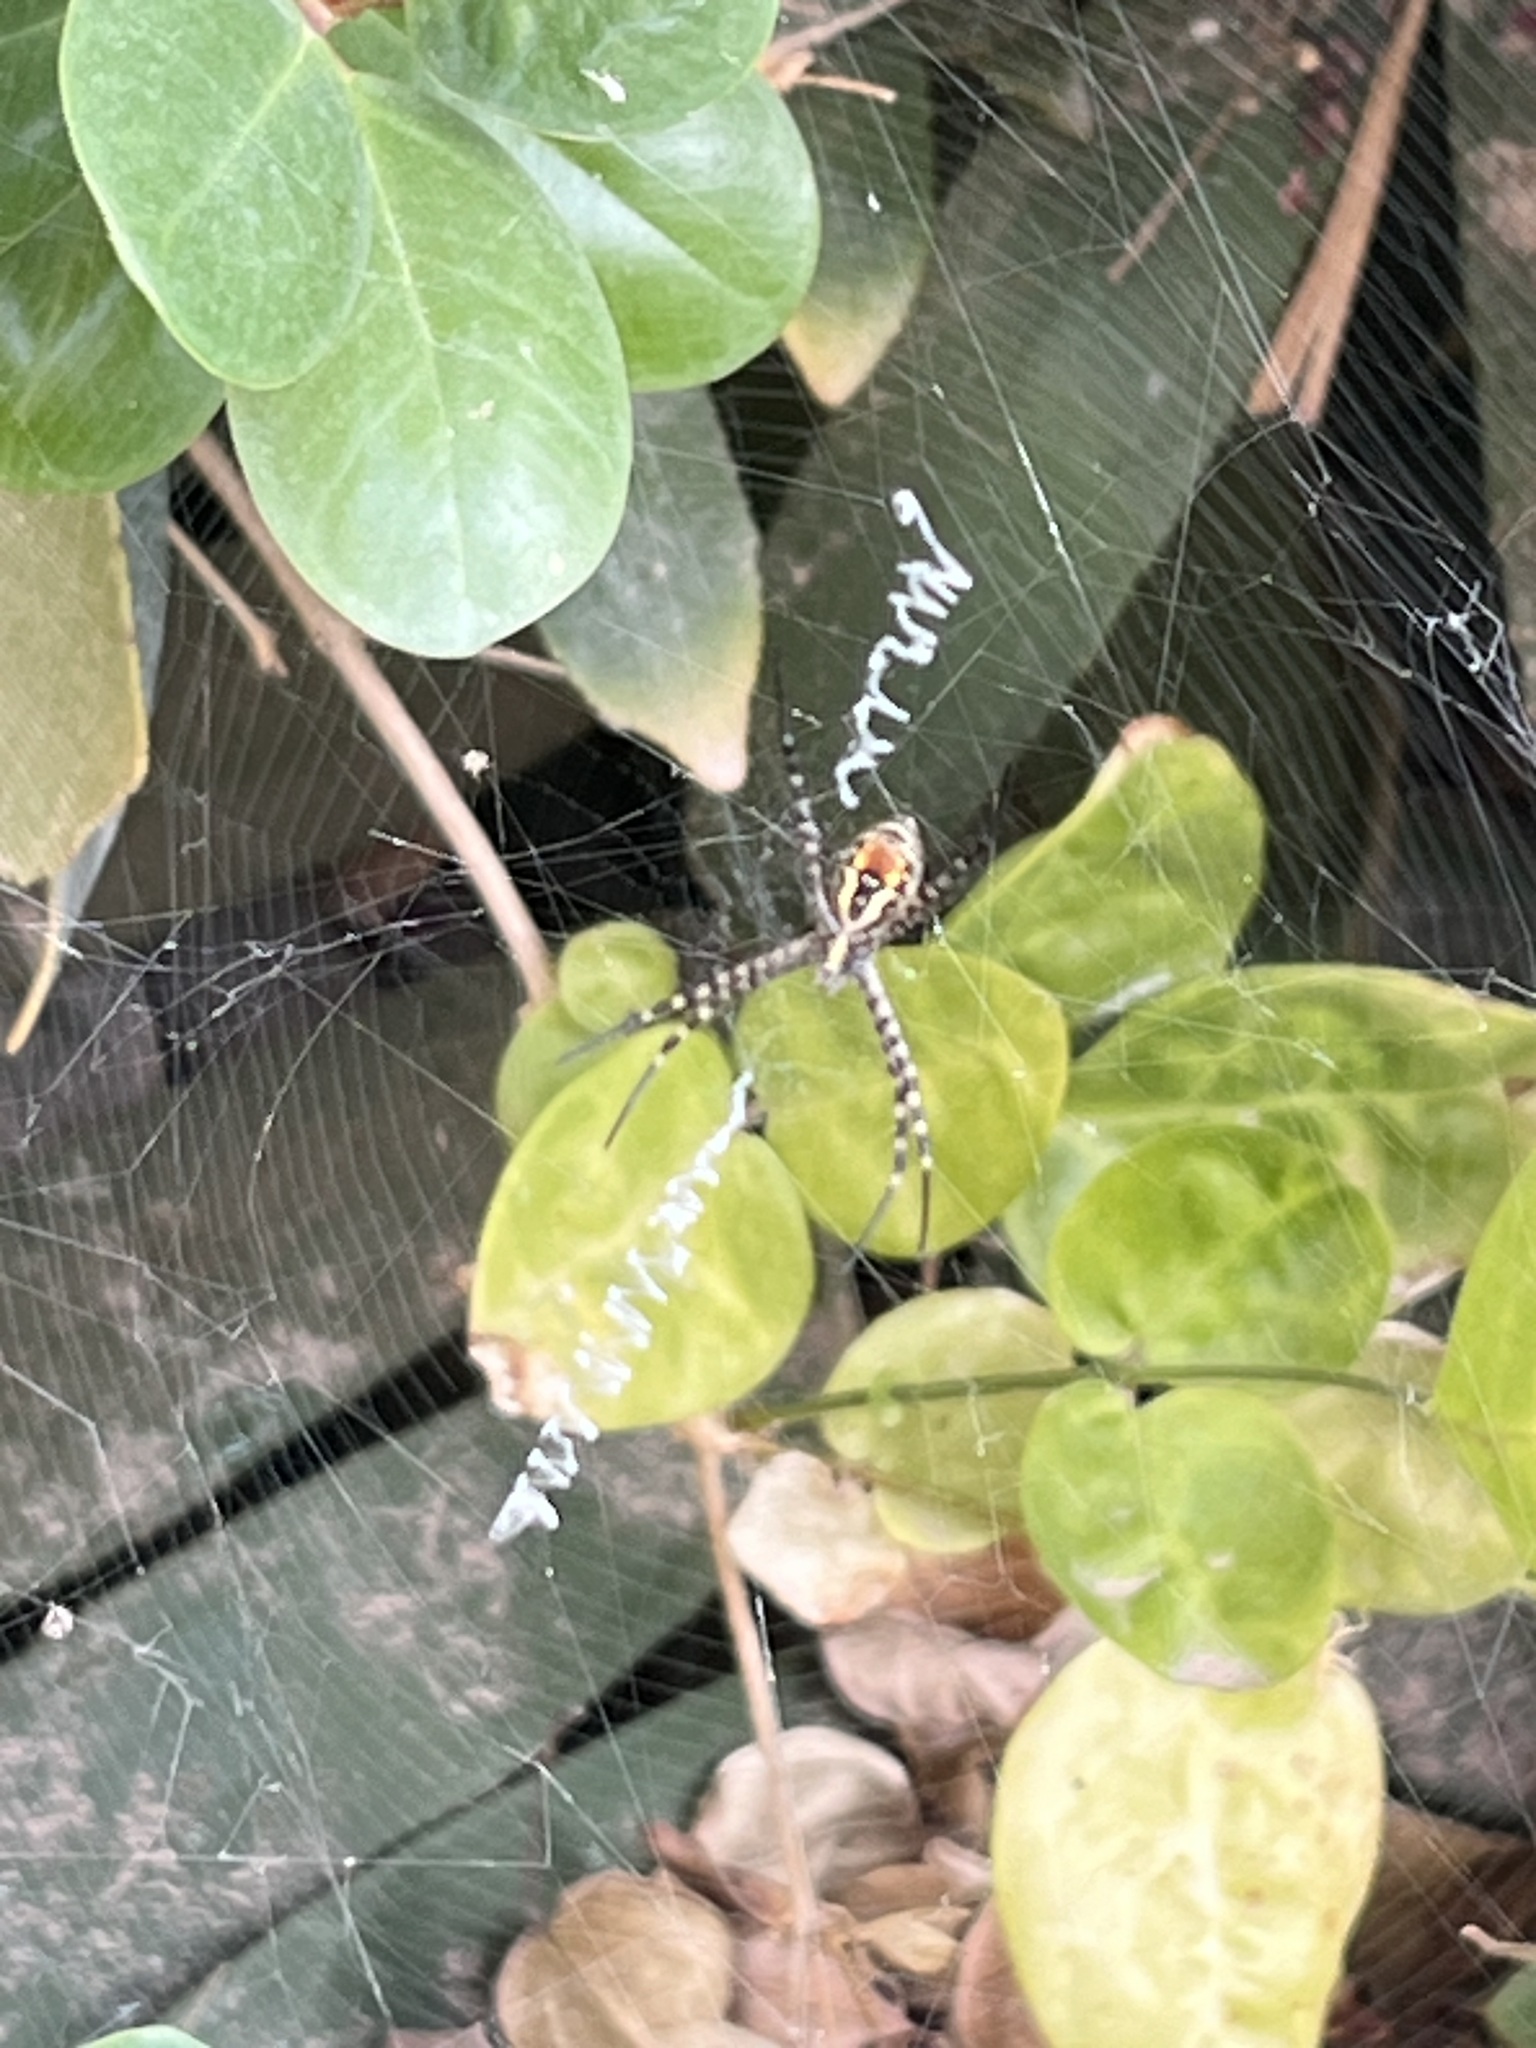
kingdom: Animalia
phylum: Arthropoda
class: Arachnida
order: Araneae
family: Araneidae
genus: Argiope
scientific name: Argiope trifasciata
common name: Banded garden spider
